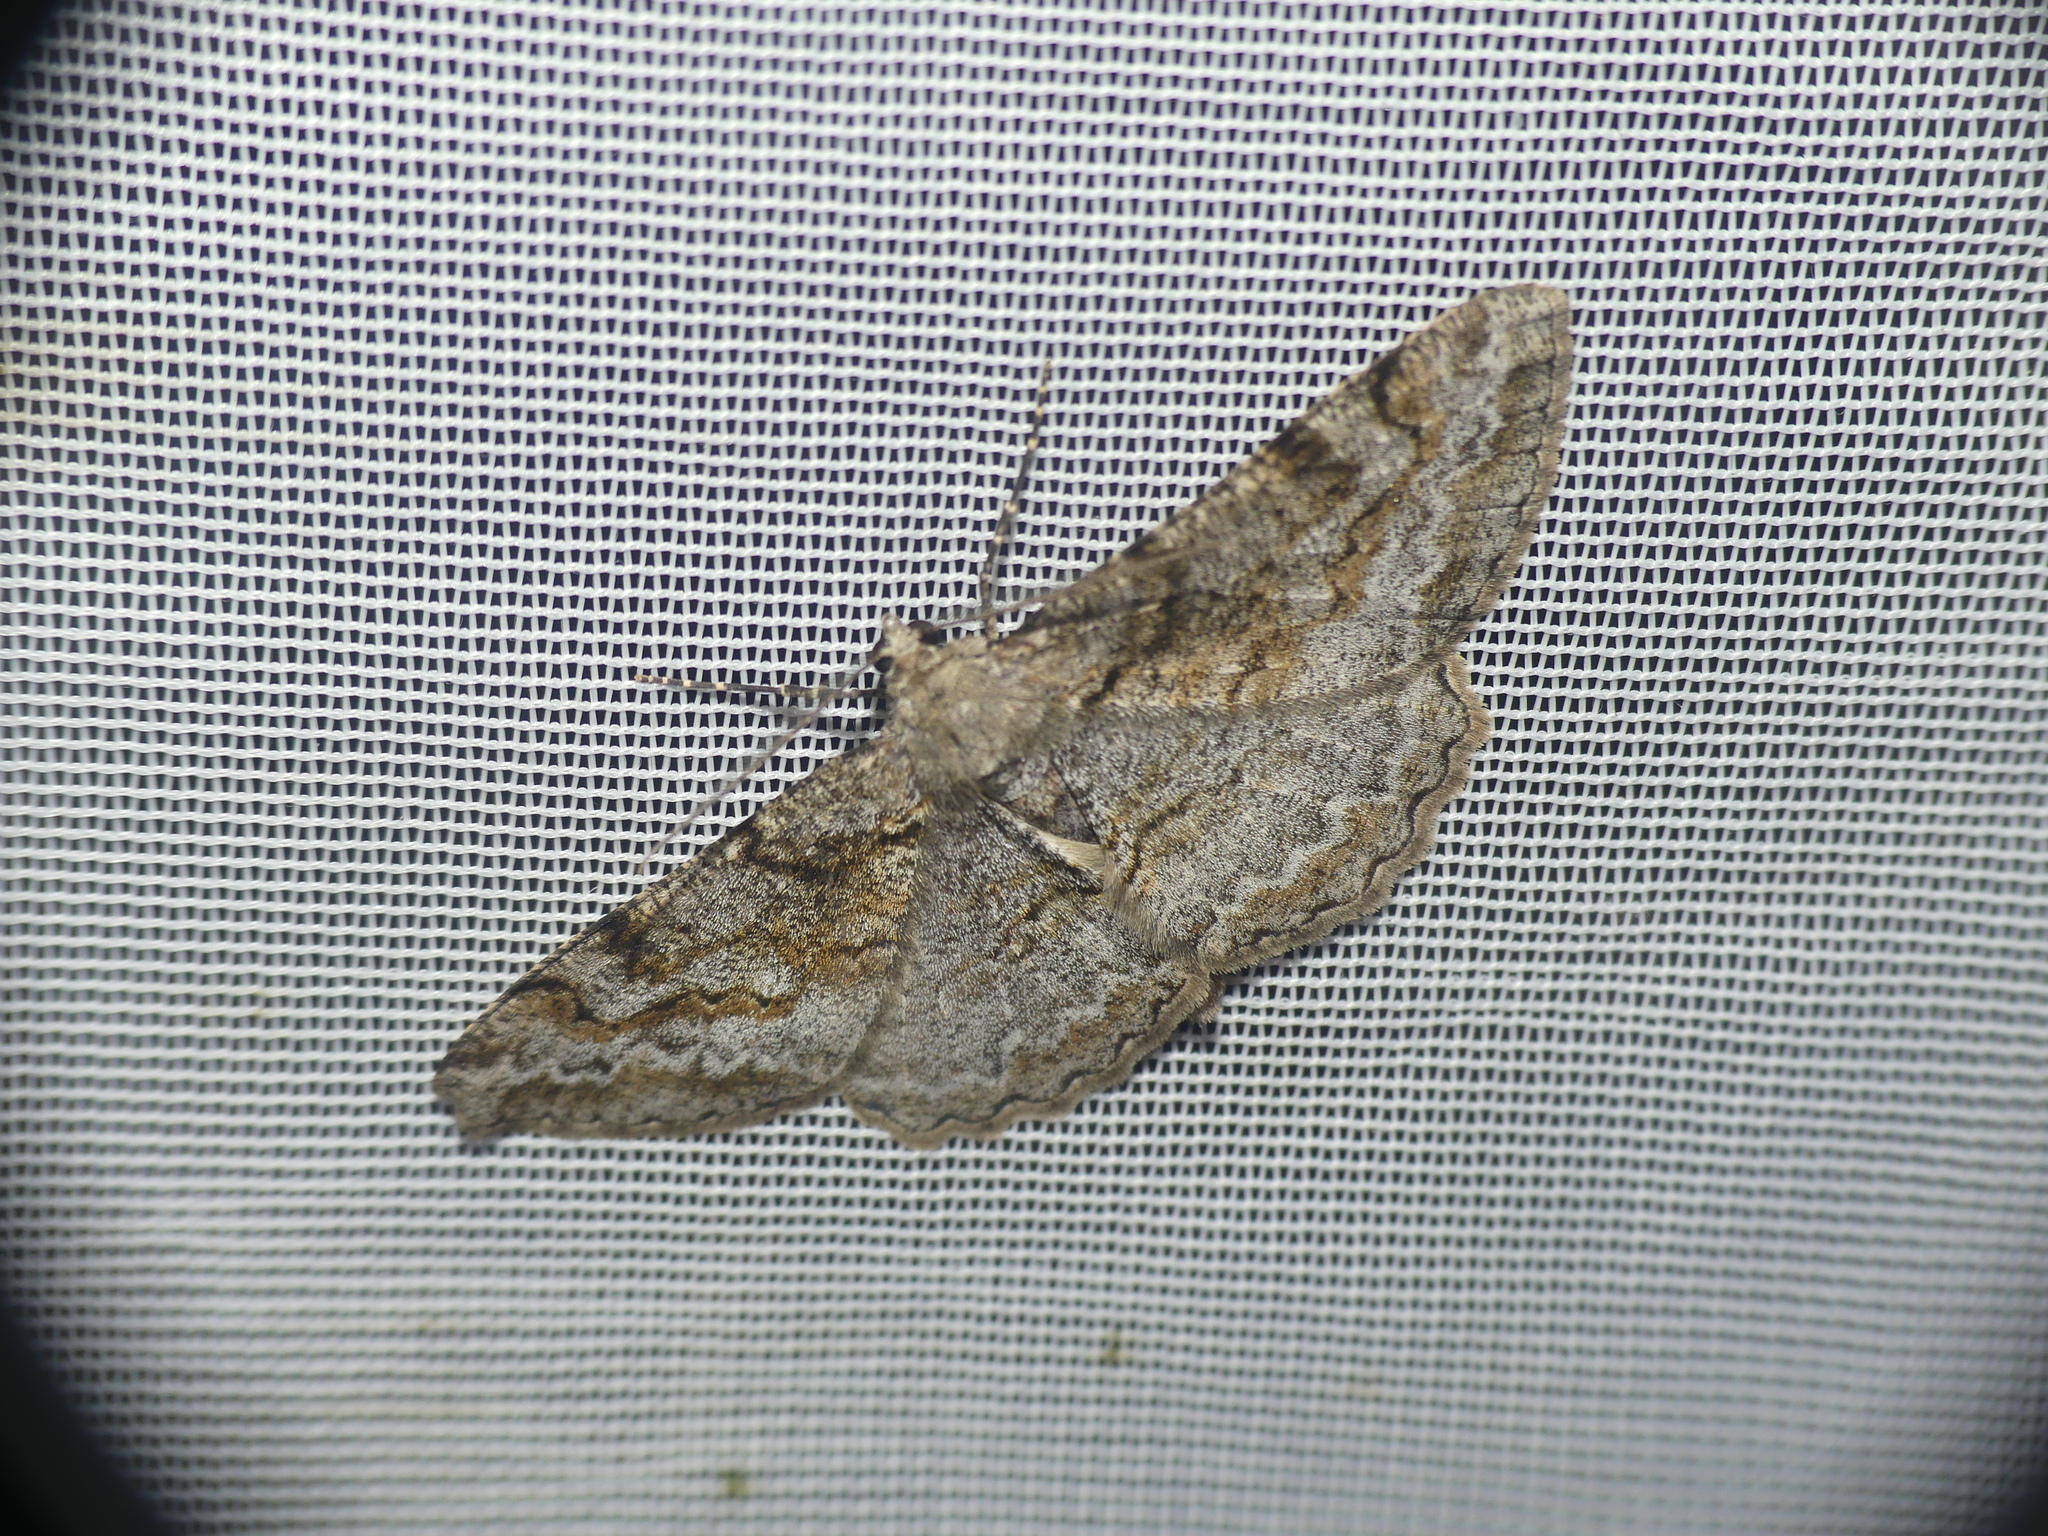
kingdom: Animalia
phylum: Arthropoda
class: Insecta
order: Lepidoptera
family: Geometridae
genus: Alcis
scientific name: Alcis repandata
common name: Mottled beauty
